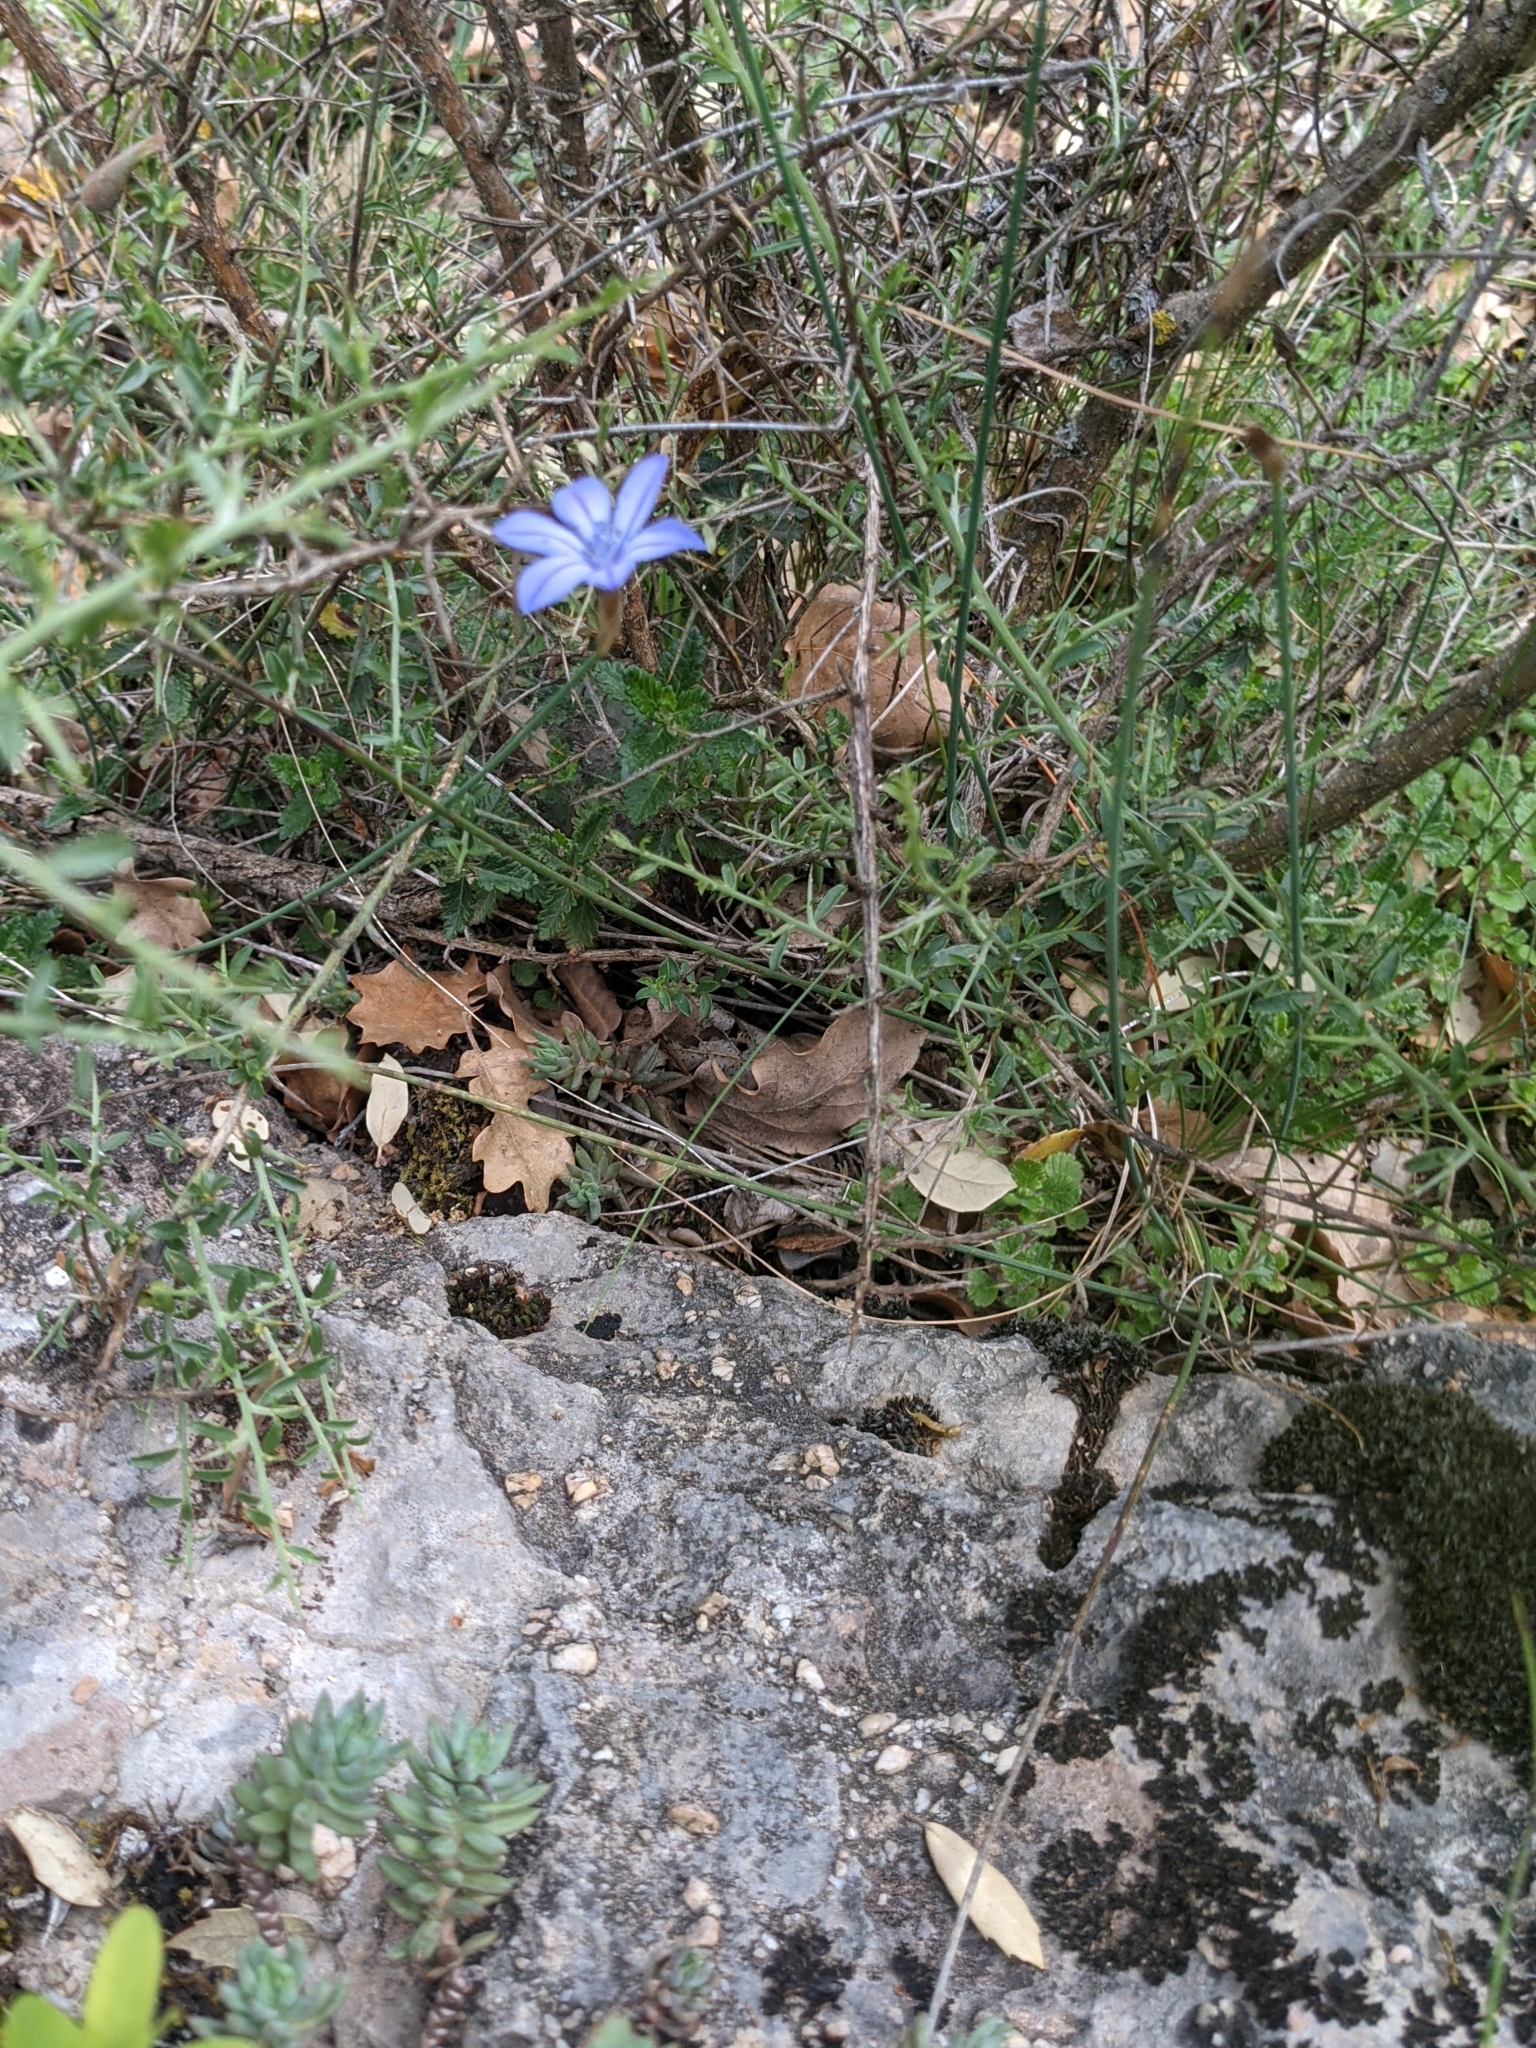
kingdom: Plantae
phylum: Tracheophyta
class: Liliopsida
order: Asparagales
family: Asparagaceae
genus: Aphyllanthes
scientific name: Aphyllanthes monspeliensis
